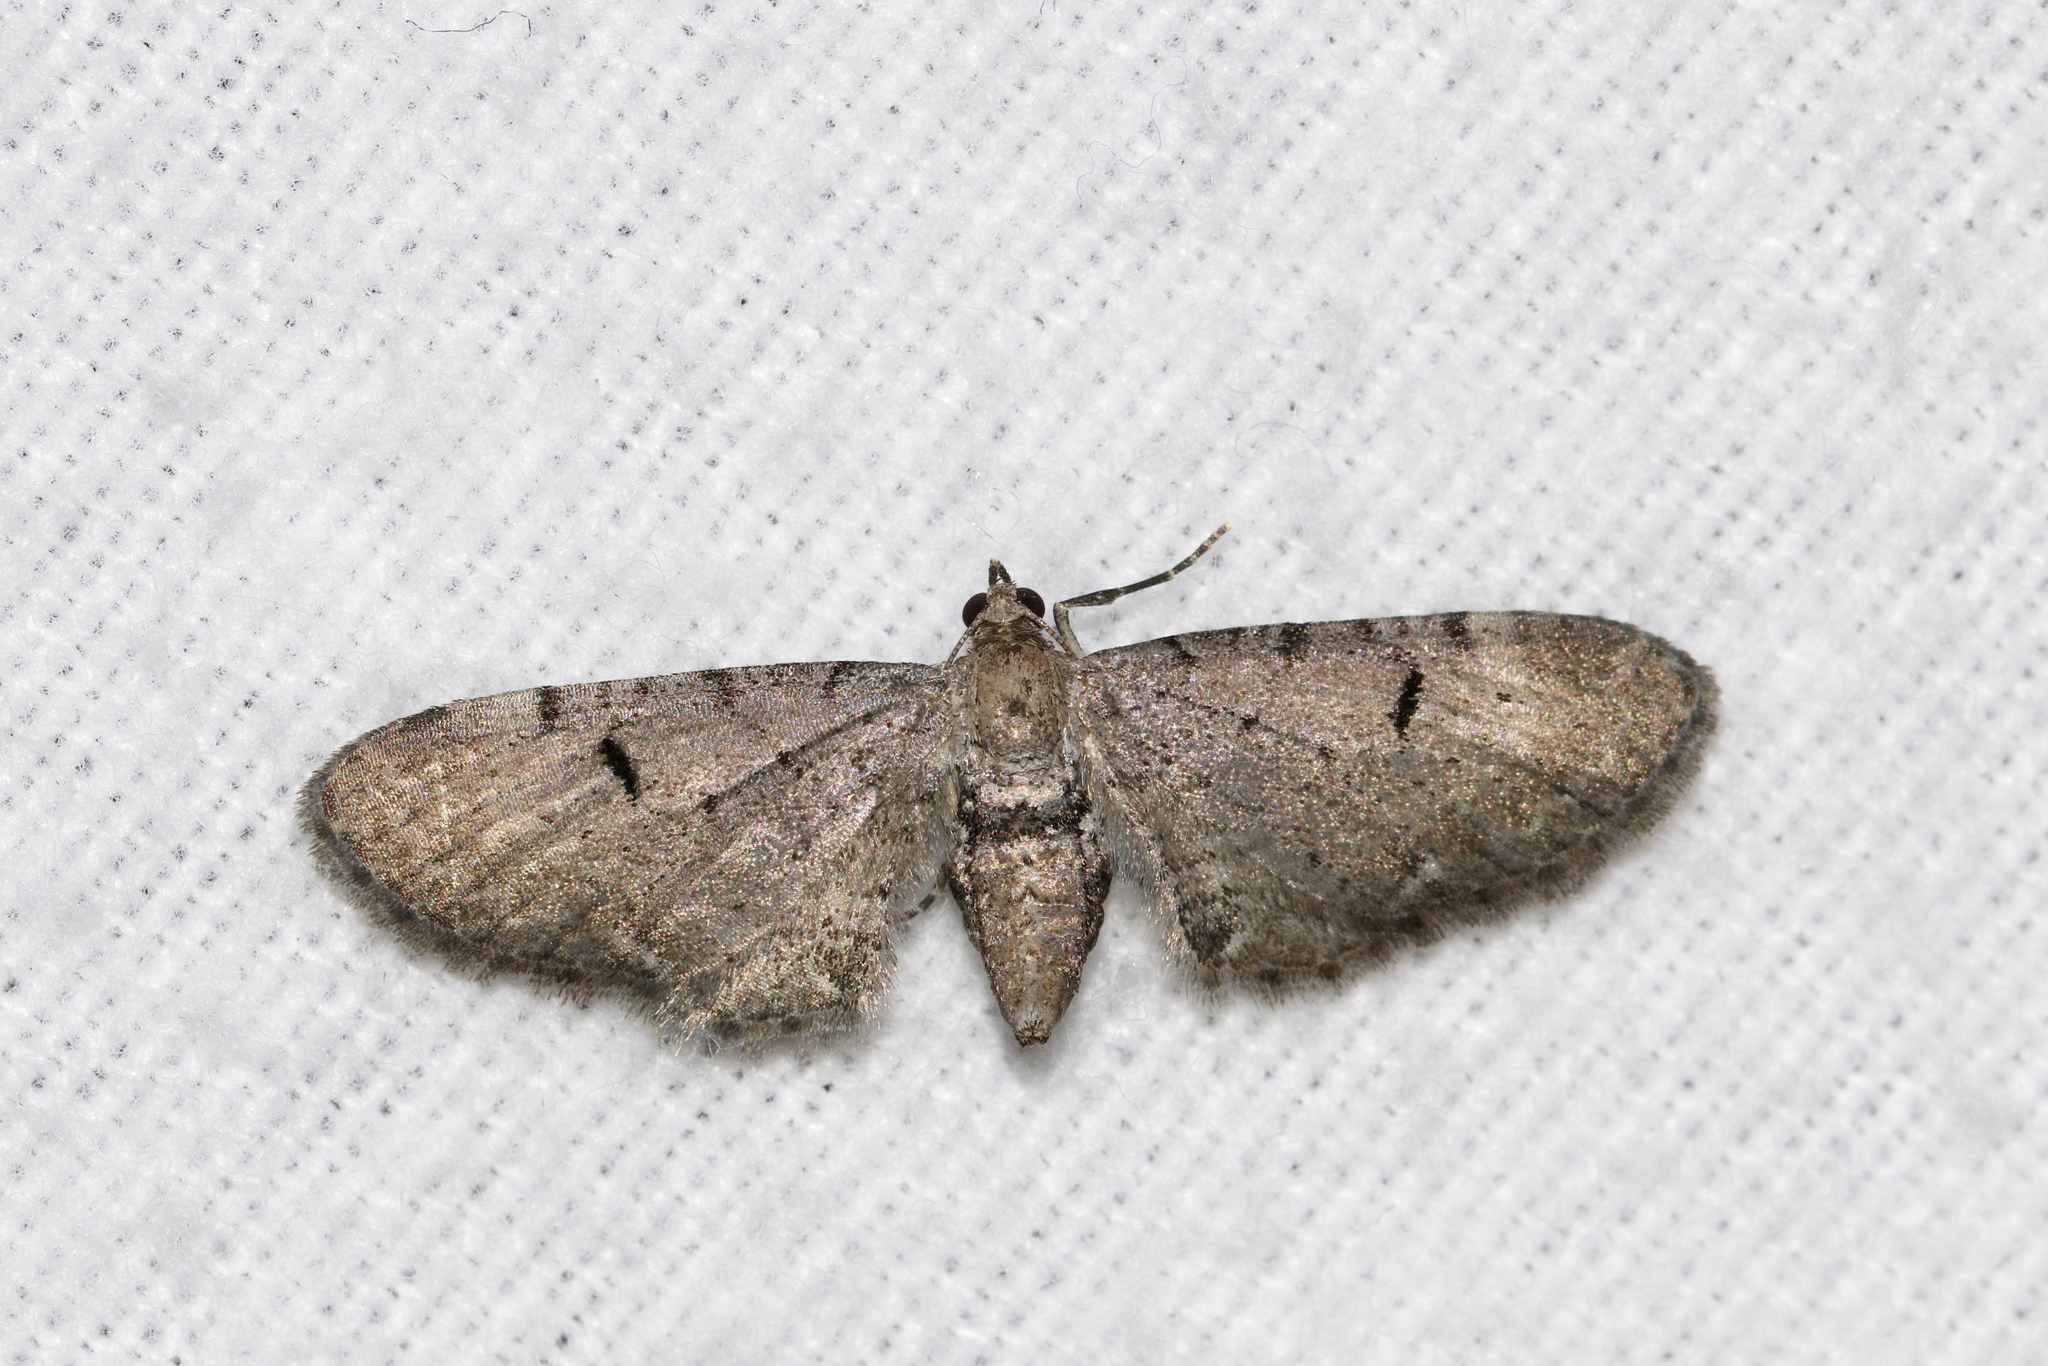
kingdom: Animalia
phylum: Arthropoda
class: Insecta
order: Lepidoptera
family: Geometridae
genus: Eupithecia
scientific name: Eupithecia miserulata
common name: Common eupithecia
